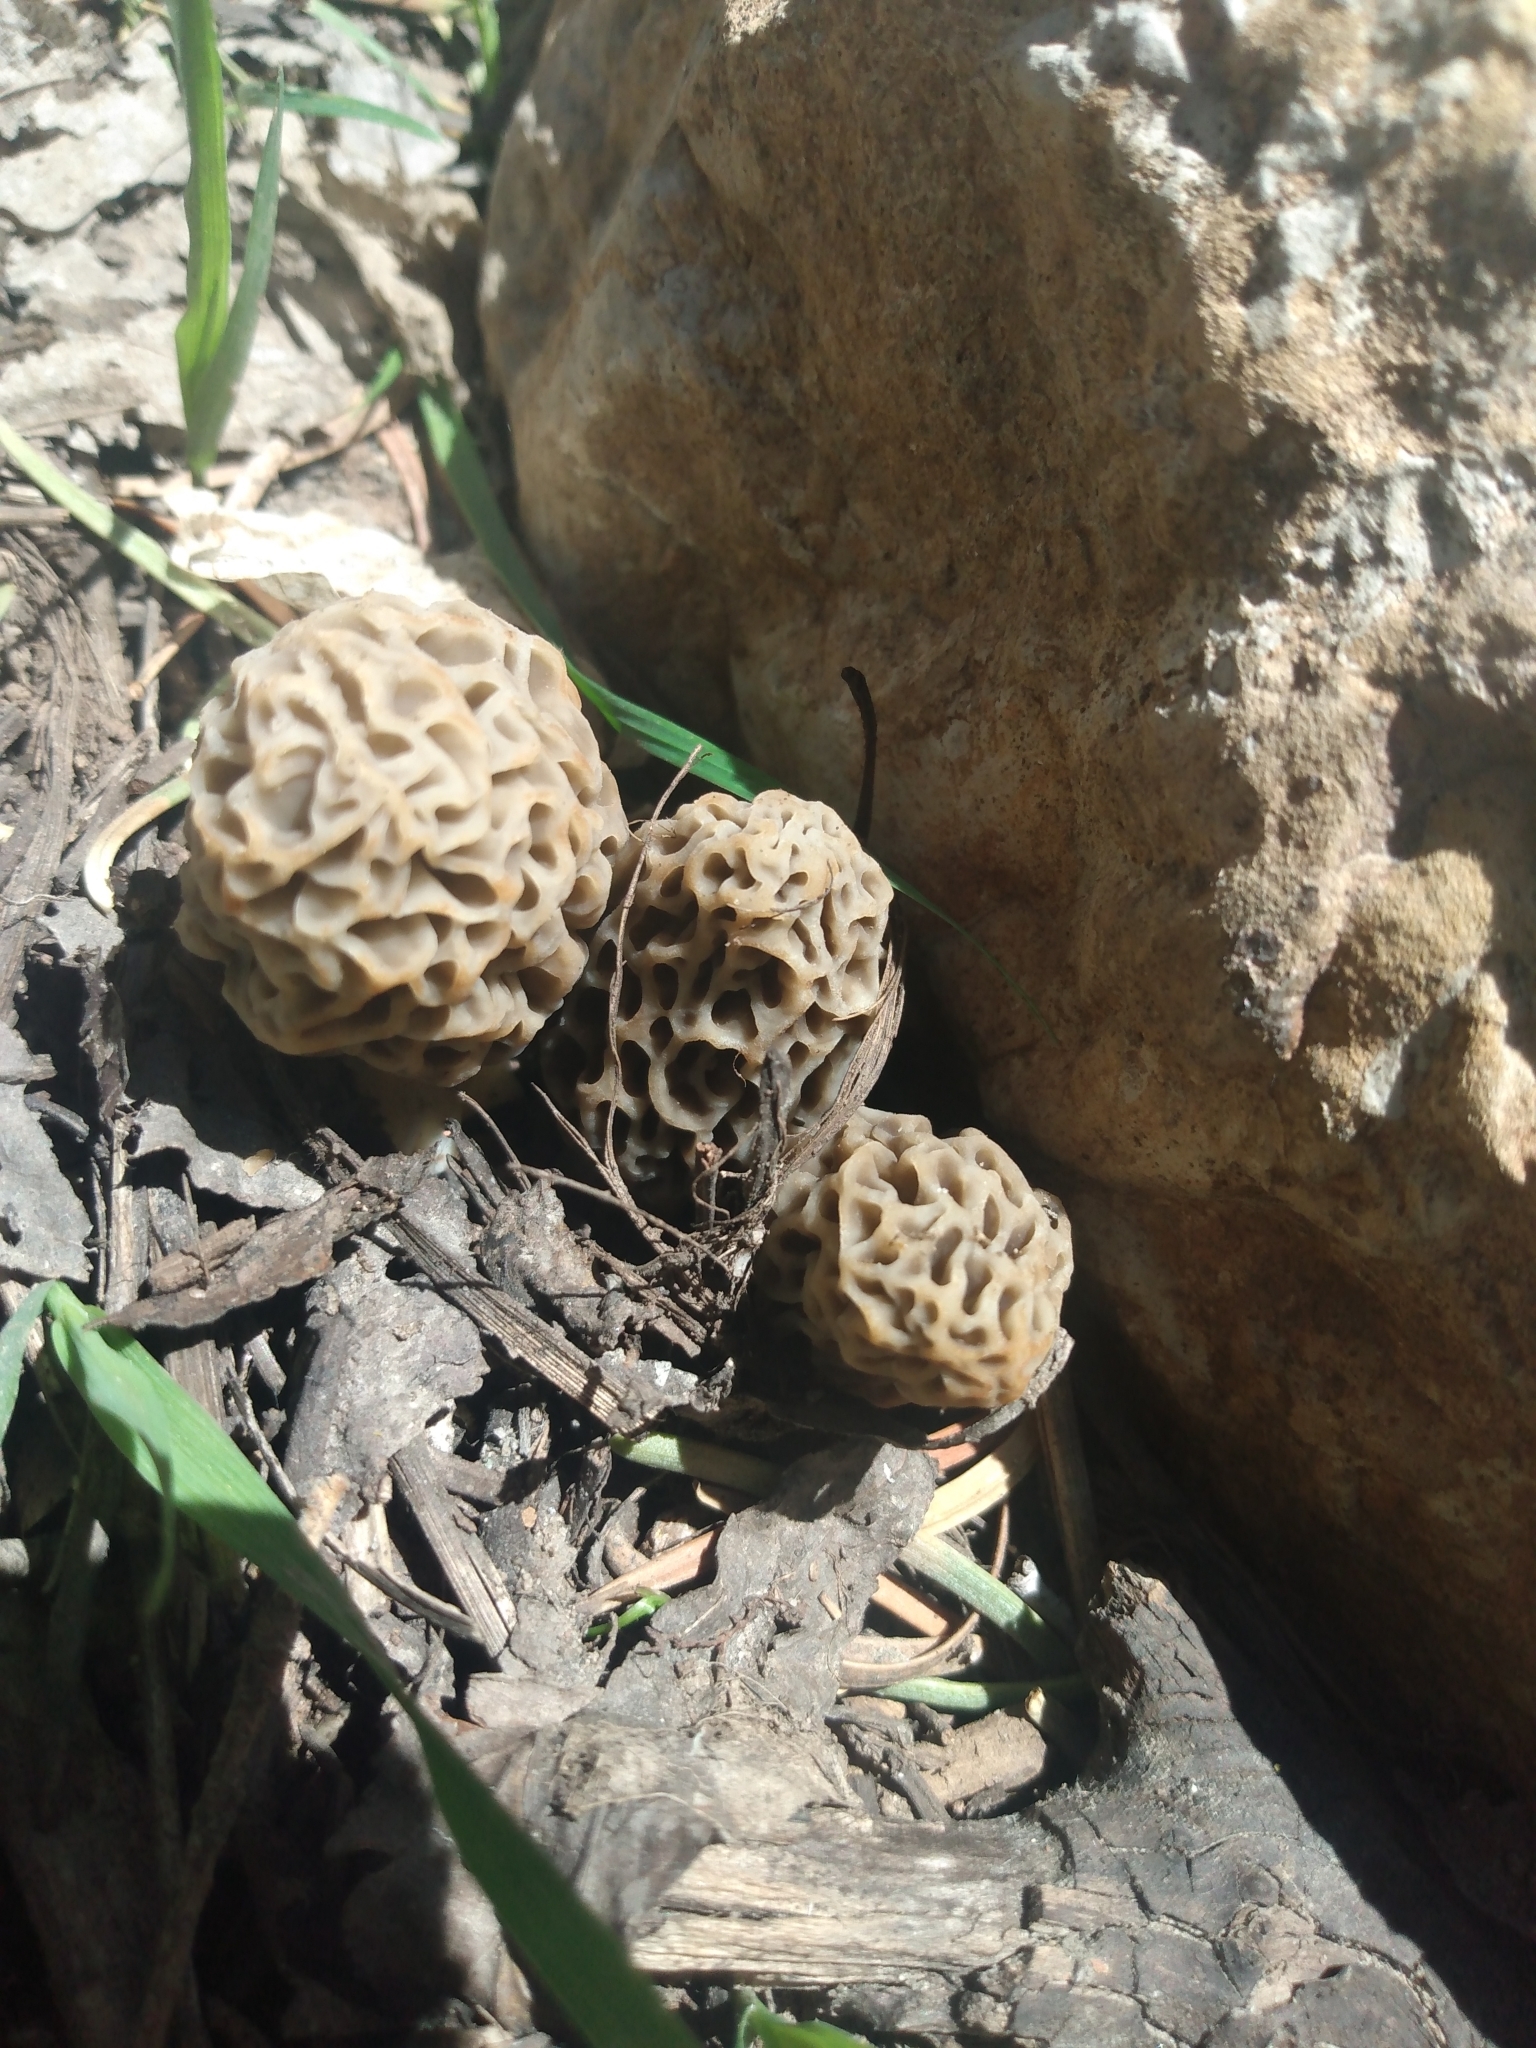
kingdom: Fungi
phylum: Ascomycota
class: Pezizomycetes
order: Pezizales
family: Morchellaceae
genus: Morchella
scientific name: Morchella americana
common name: White morel
